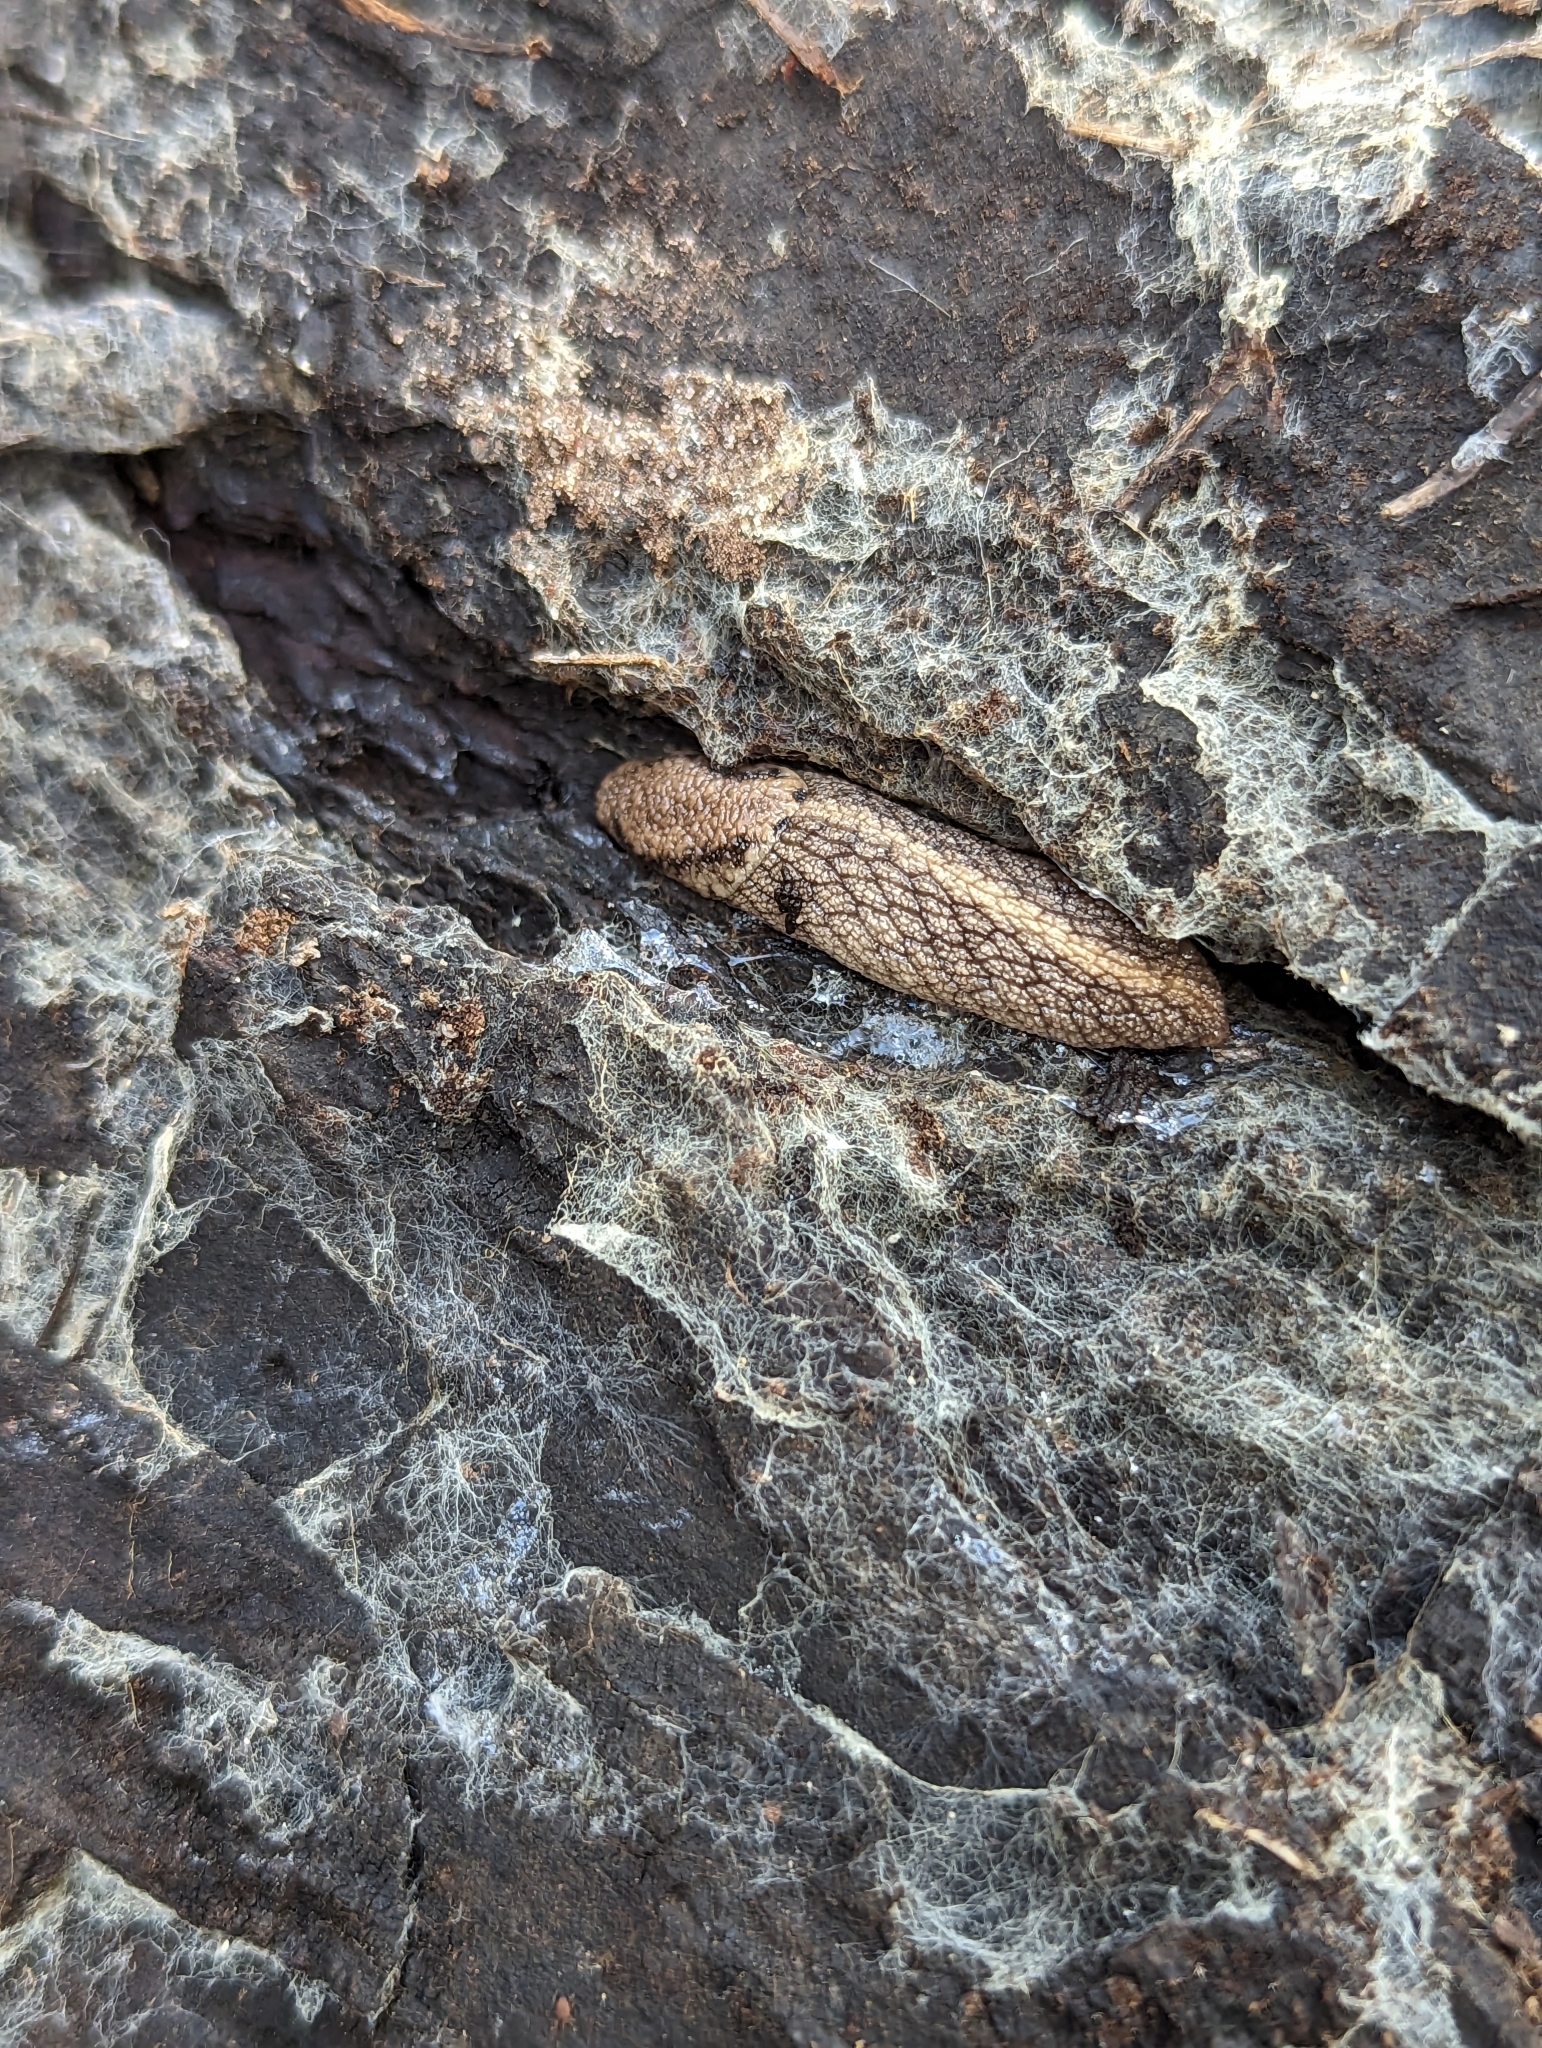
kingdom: Animalia
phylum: Mollusca
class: Gastropoda
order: Stylommatophora
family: Ariolimacidae
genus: Prophysaon
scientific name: Prophysaon andersonii
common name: Reticulate taildropper
